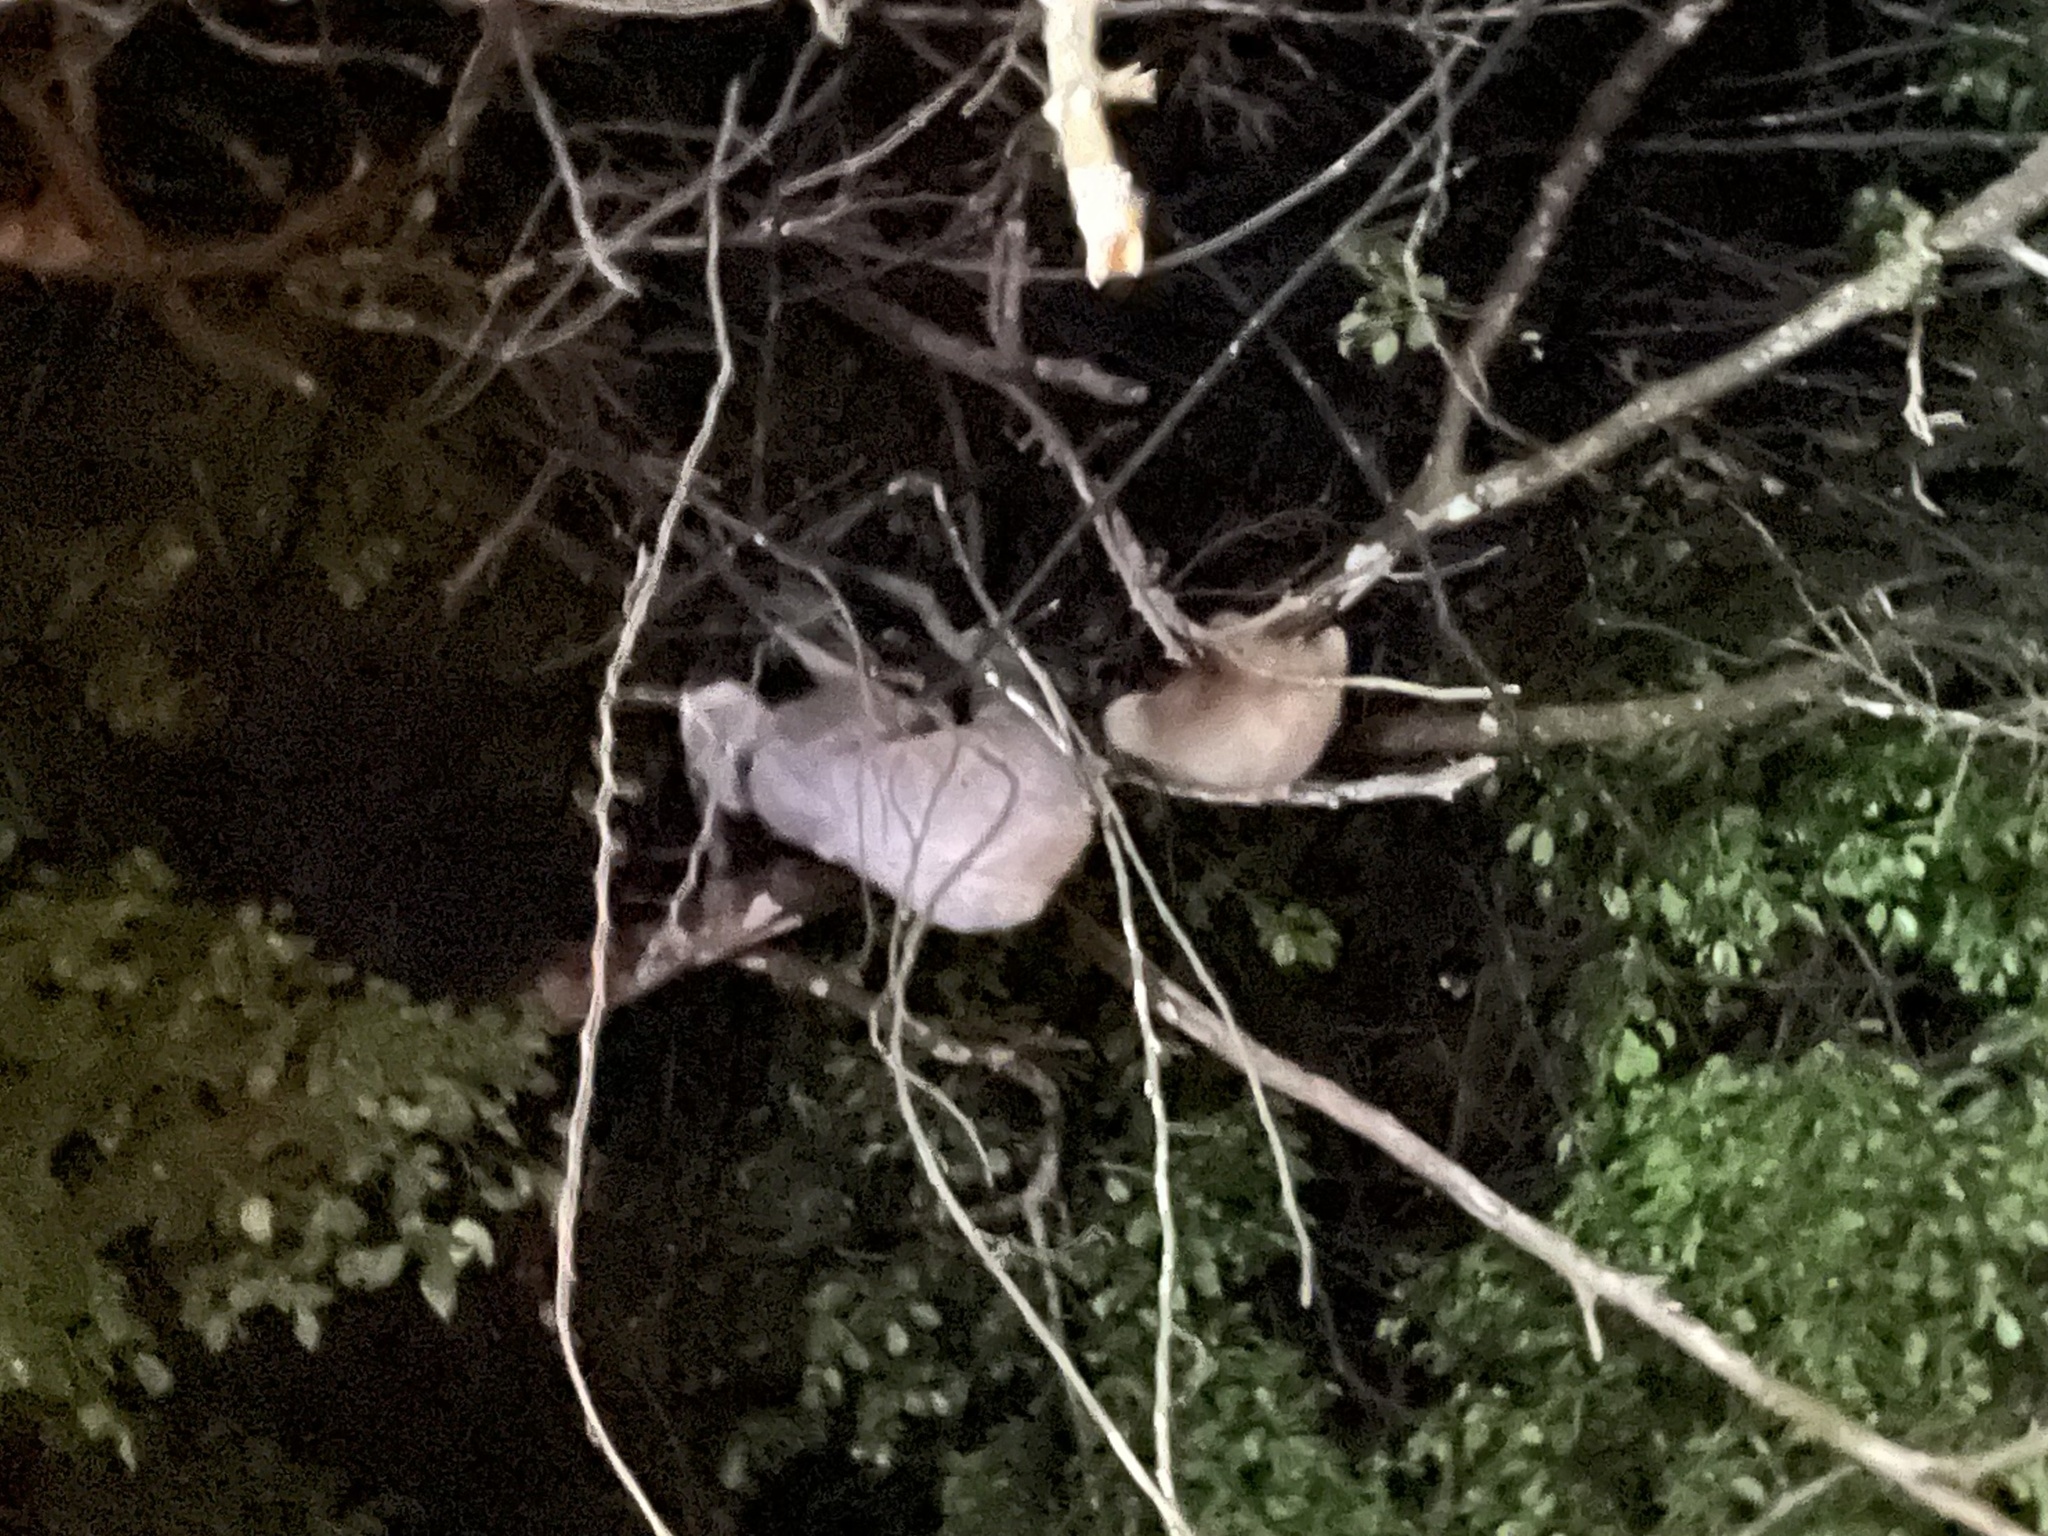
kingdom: Animalia
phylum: Chordata
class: Mammalia
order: Pilosa
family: Megalonychidae
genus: Choloepus
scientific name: Choloepus hoffmanni
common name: Hoffmann's two-toed sloth
